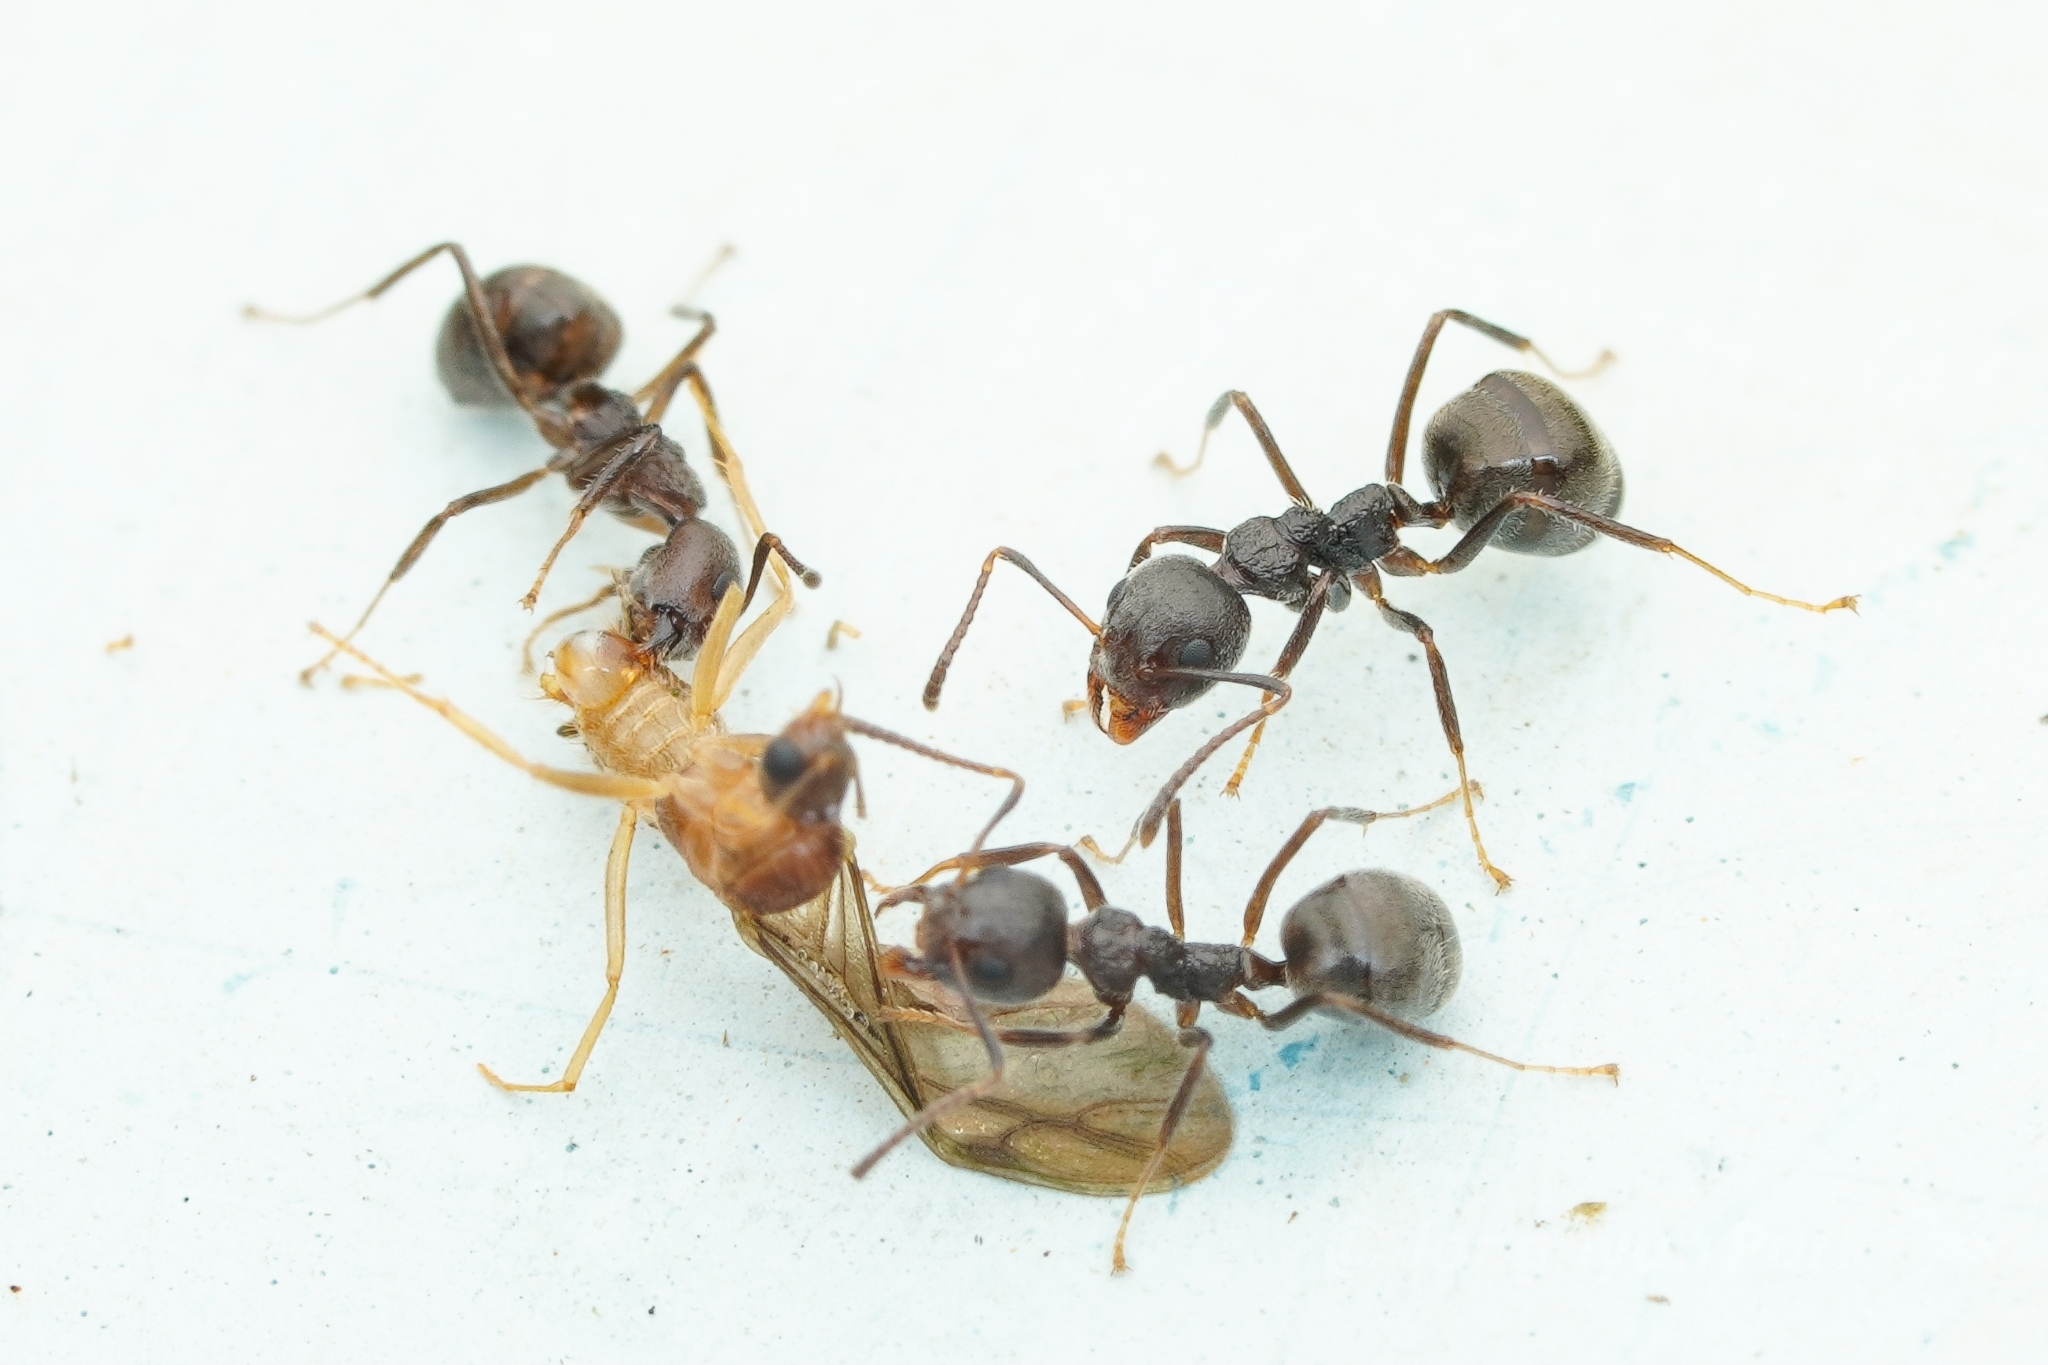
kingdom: Animalia
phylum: Arthropoda
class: Insecta
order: Hymenoptera
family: Formicidae
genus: Dolichoderus
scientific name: Dolichoderus thoracicus
